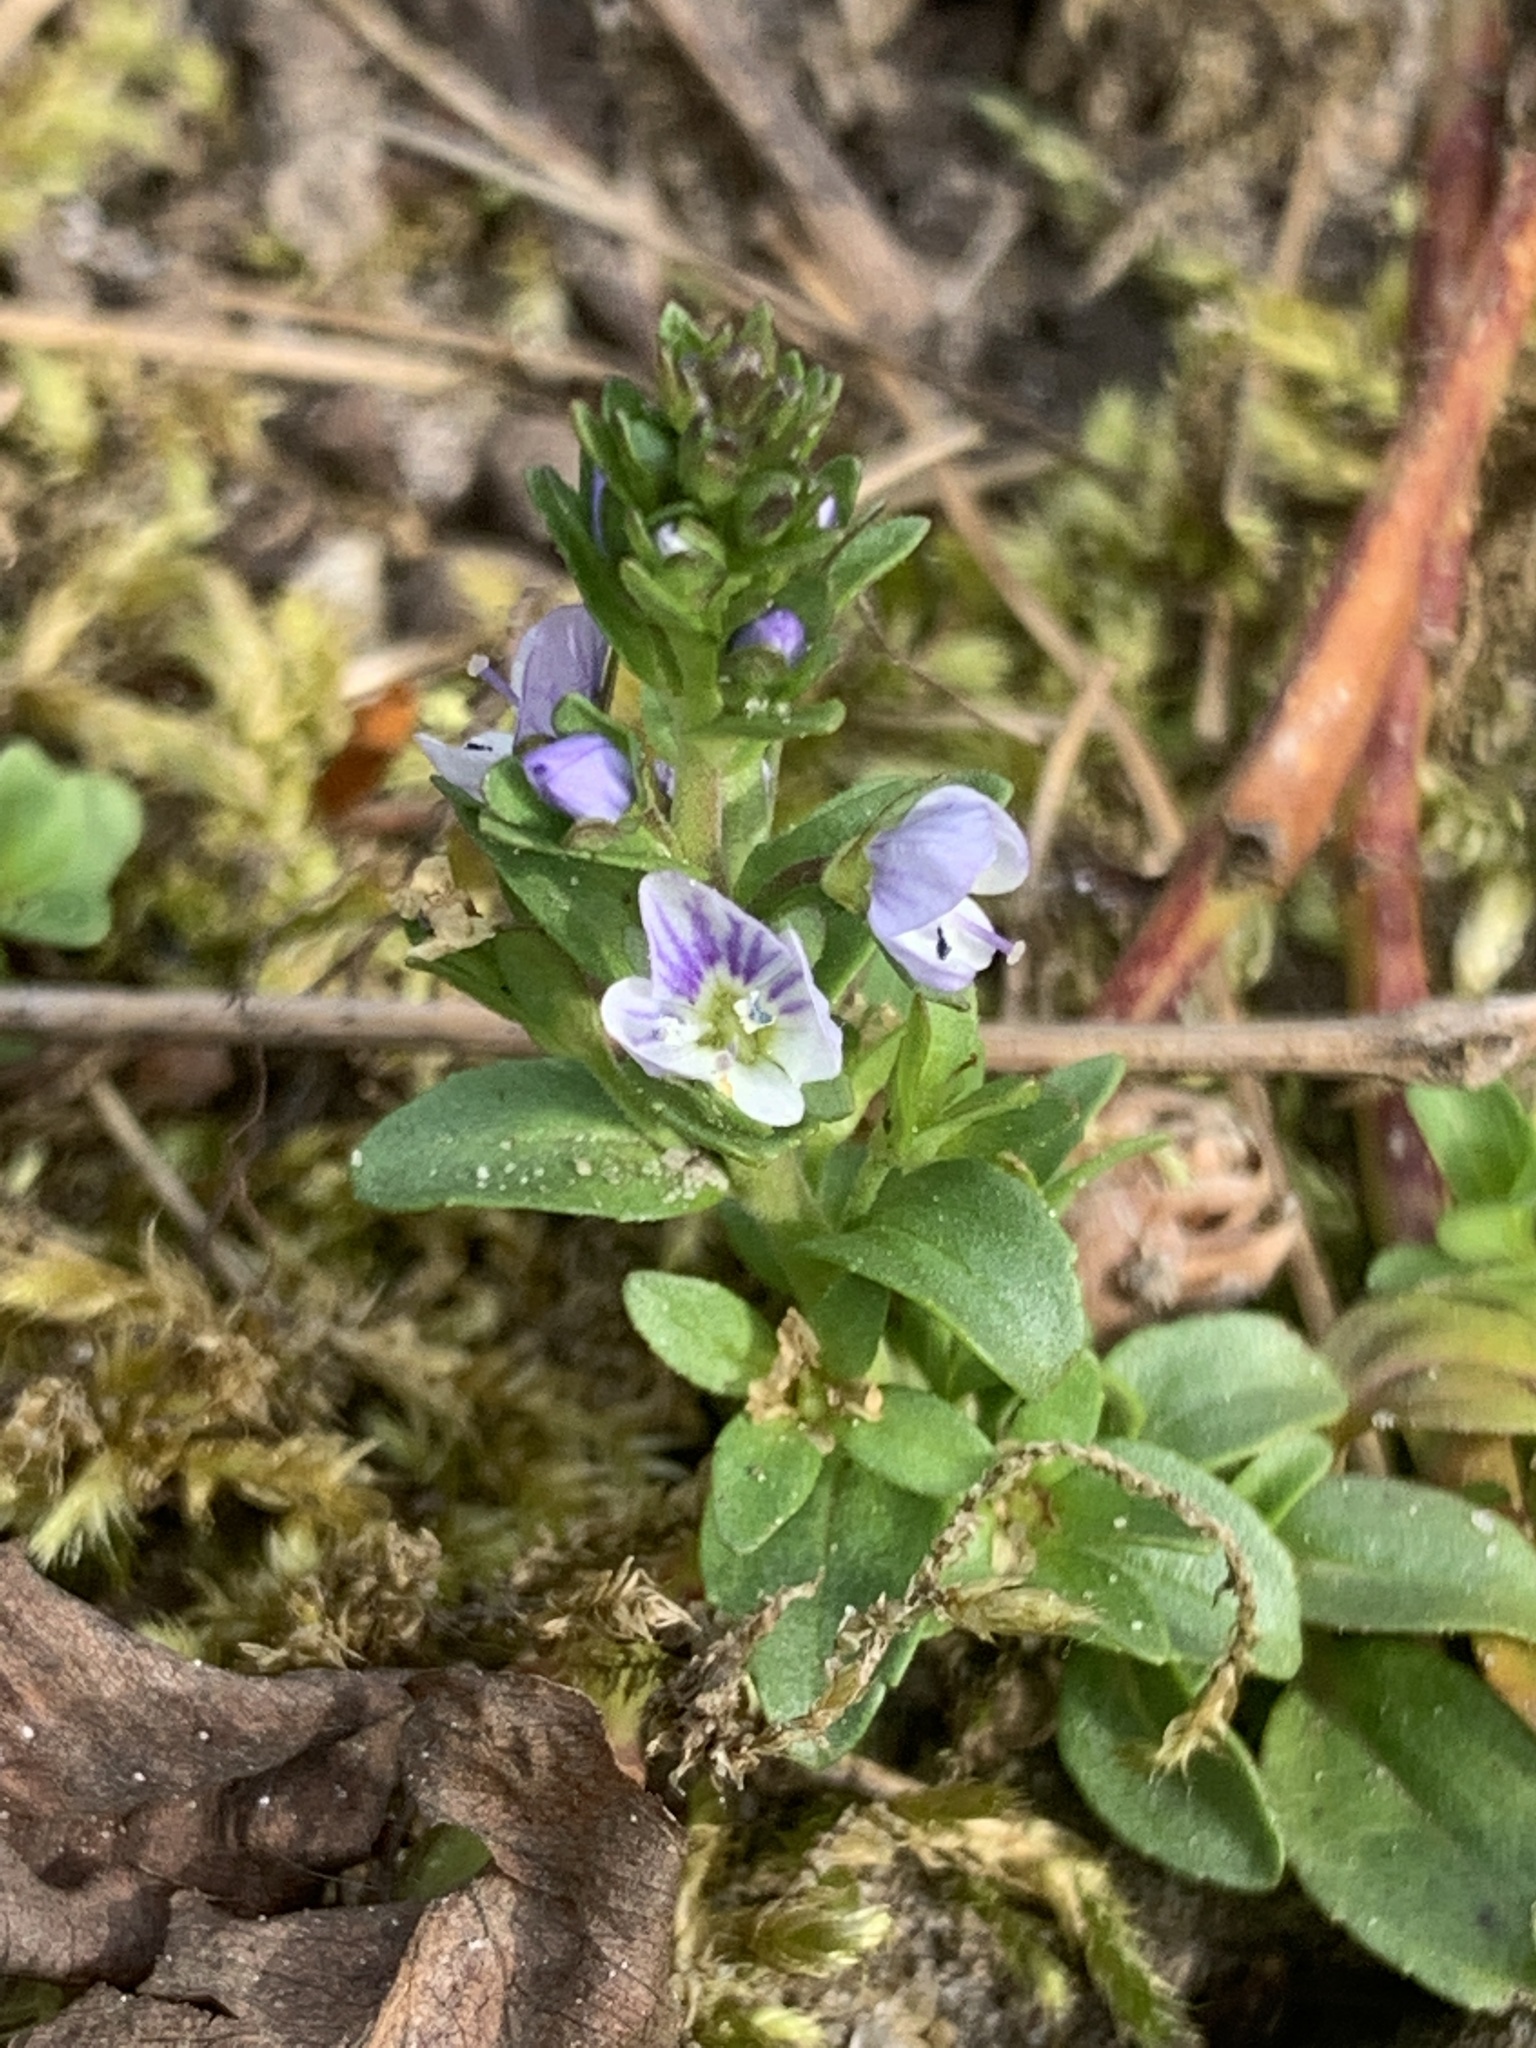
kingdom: Plantae
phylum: Tracheophyta
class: Magnoliopsida
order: Lamiales
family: Plantaginaceae
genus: Veronica
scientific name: Veronica serpyllifolia
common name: Thyme-leaved speedwell
